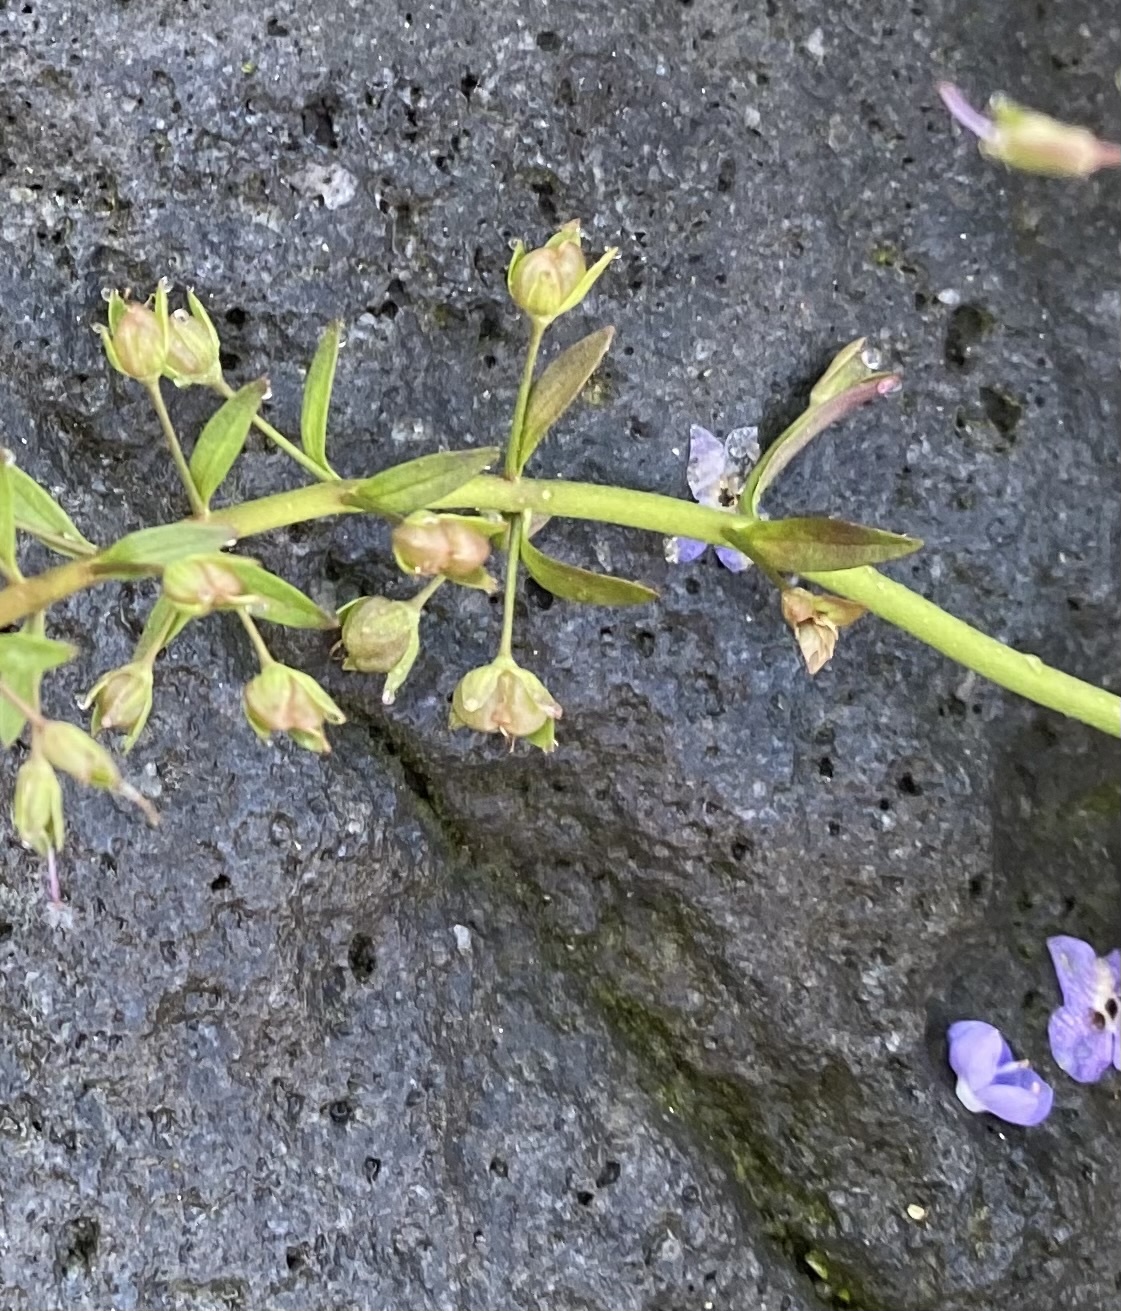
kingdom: Plantae
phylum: Tracheophyta
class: Magnoliopsida
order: Lamiales
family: Plantaginaceae
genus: Veronica
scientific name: Veronica americana
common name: American brooklime
